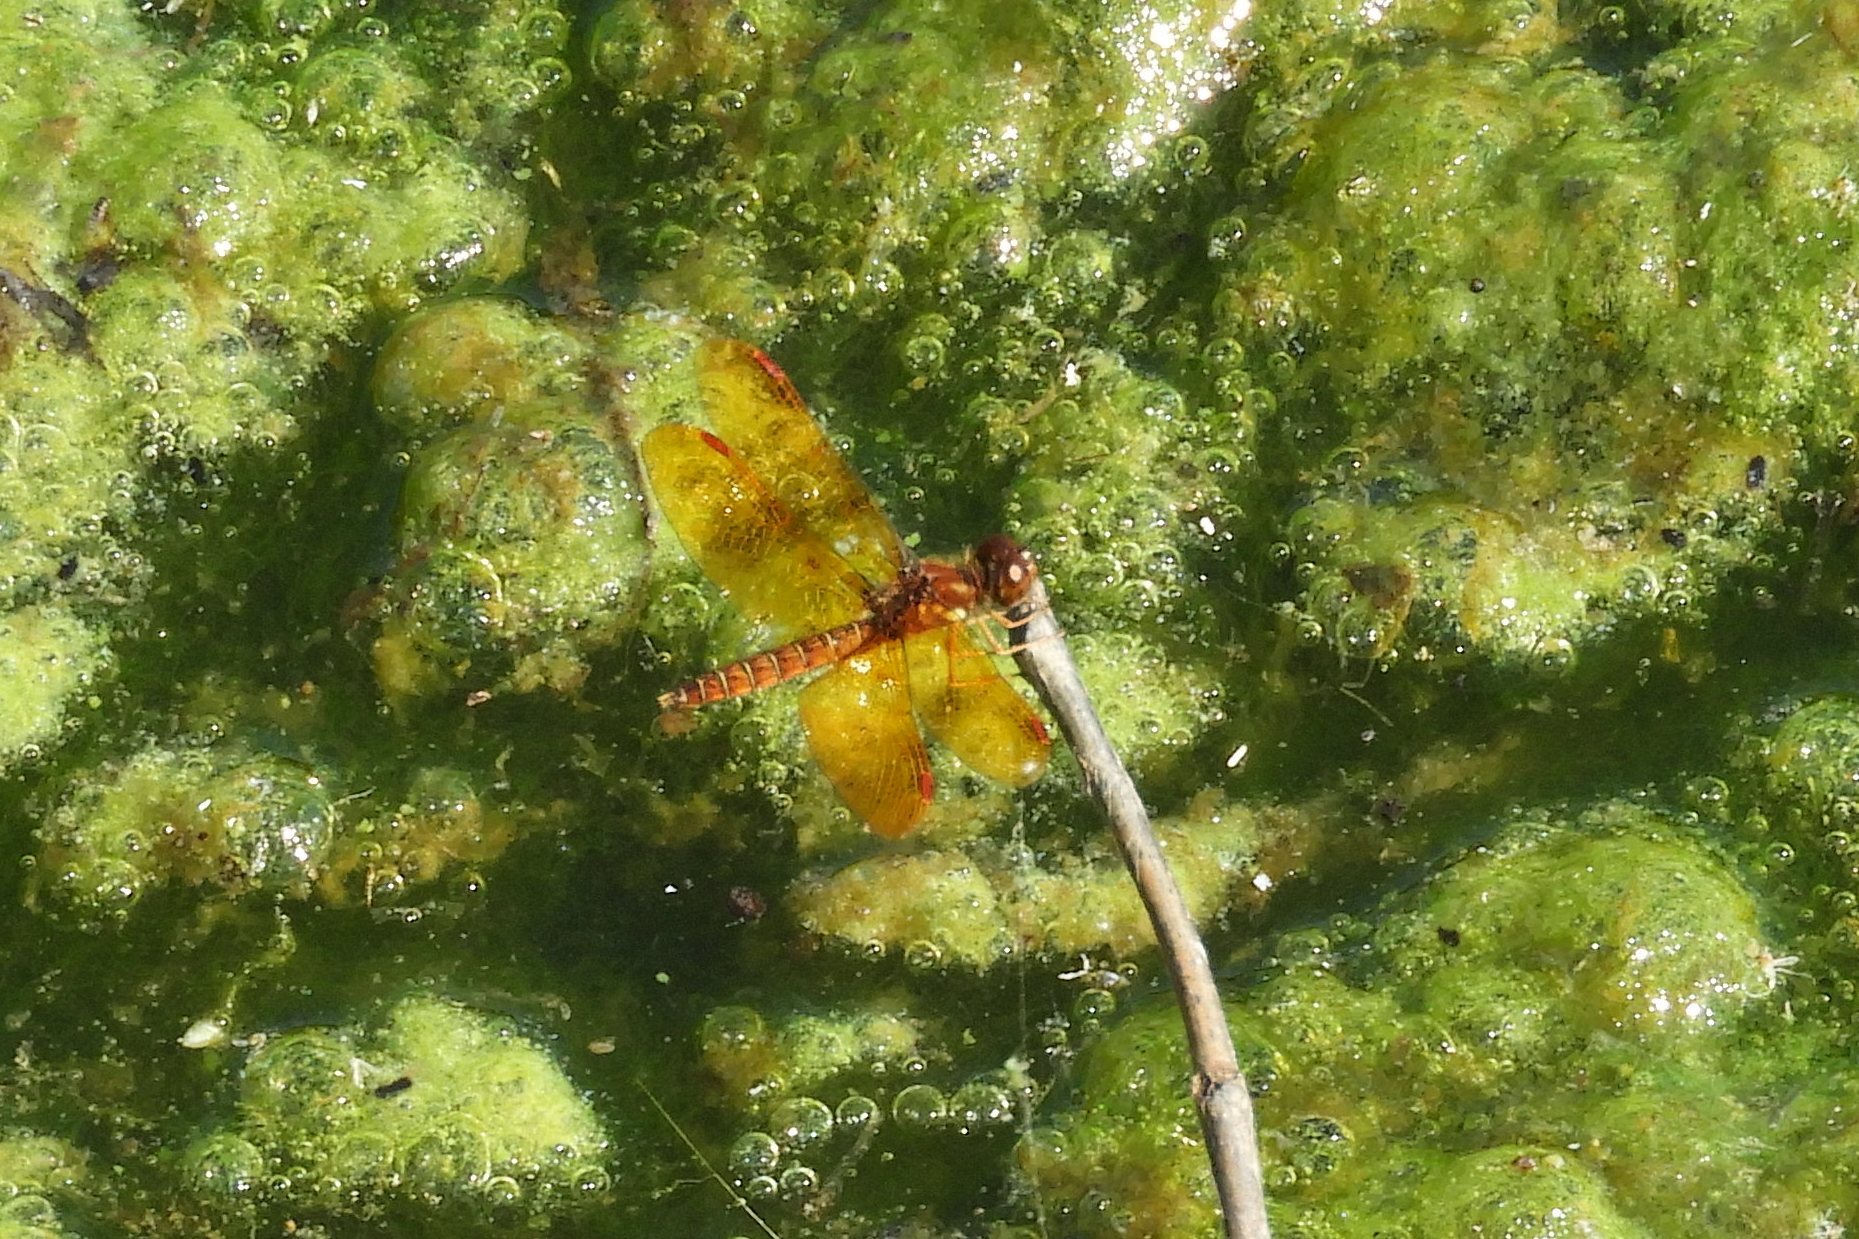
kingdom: Animalia
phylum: Arthropoda
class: Insecta
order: Odonata
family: Libellulidae
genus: Perithemis
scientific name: Perithemis tenera
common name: Eastern amberwing
